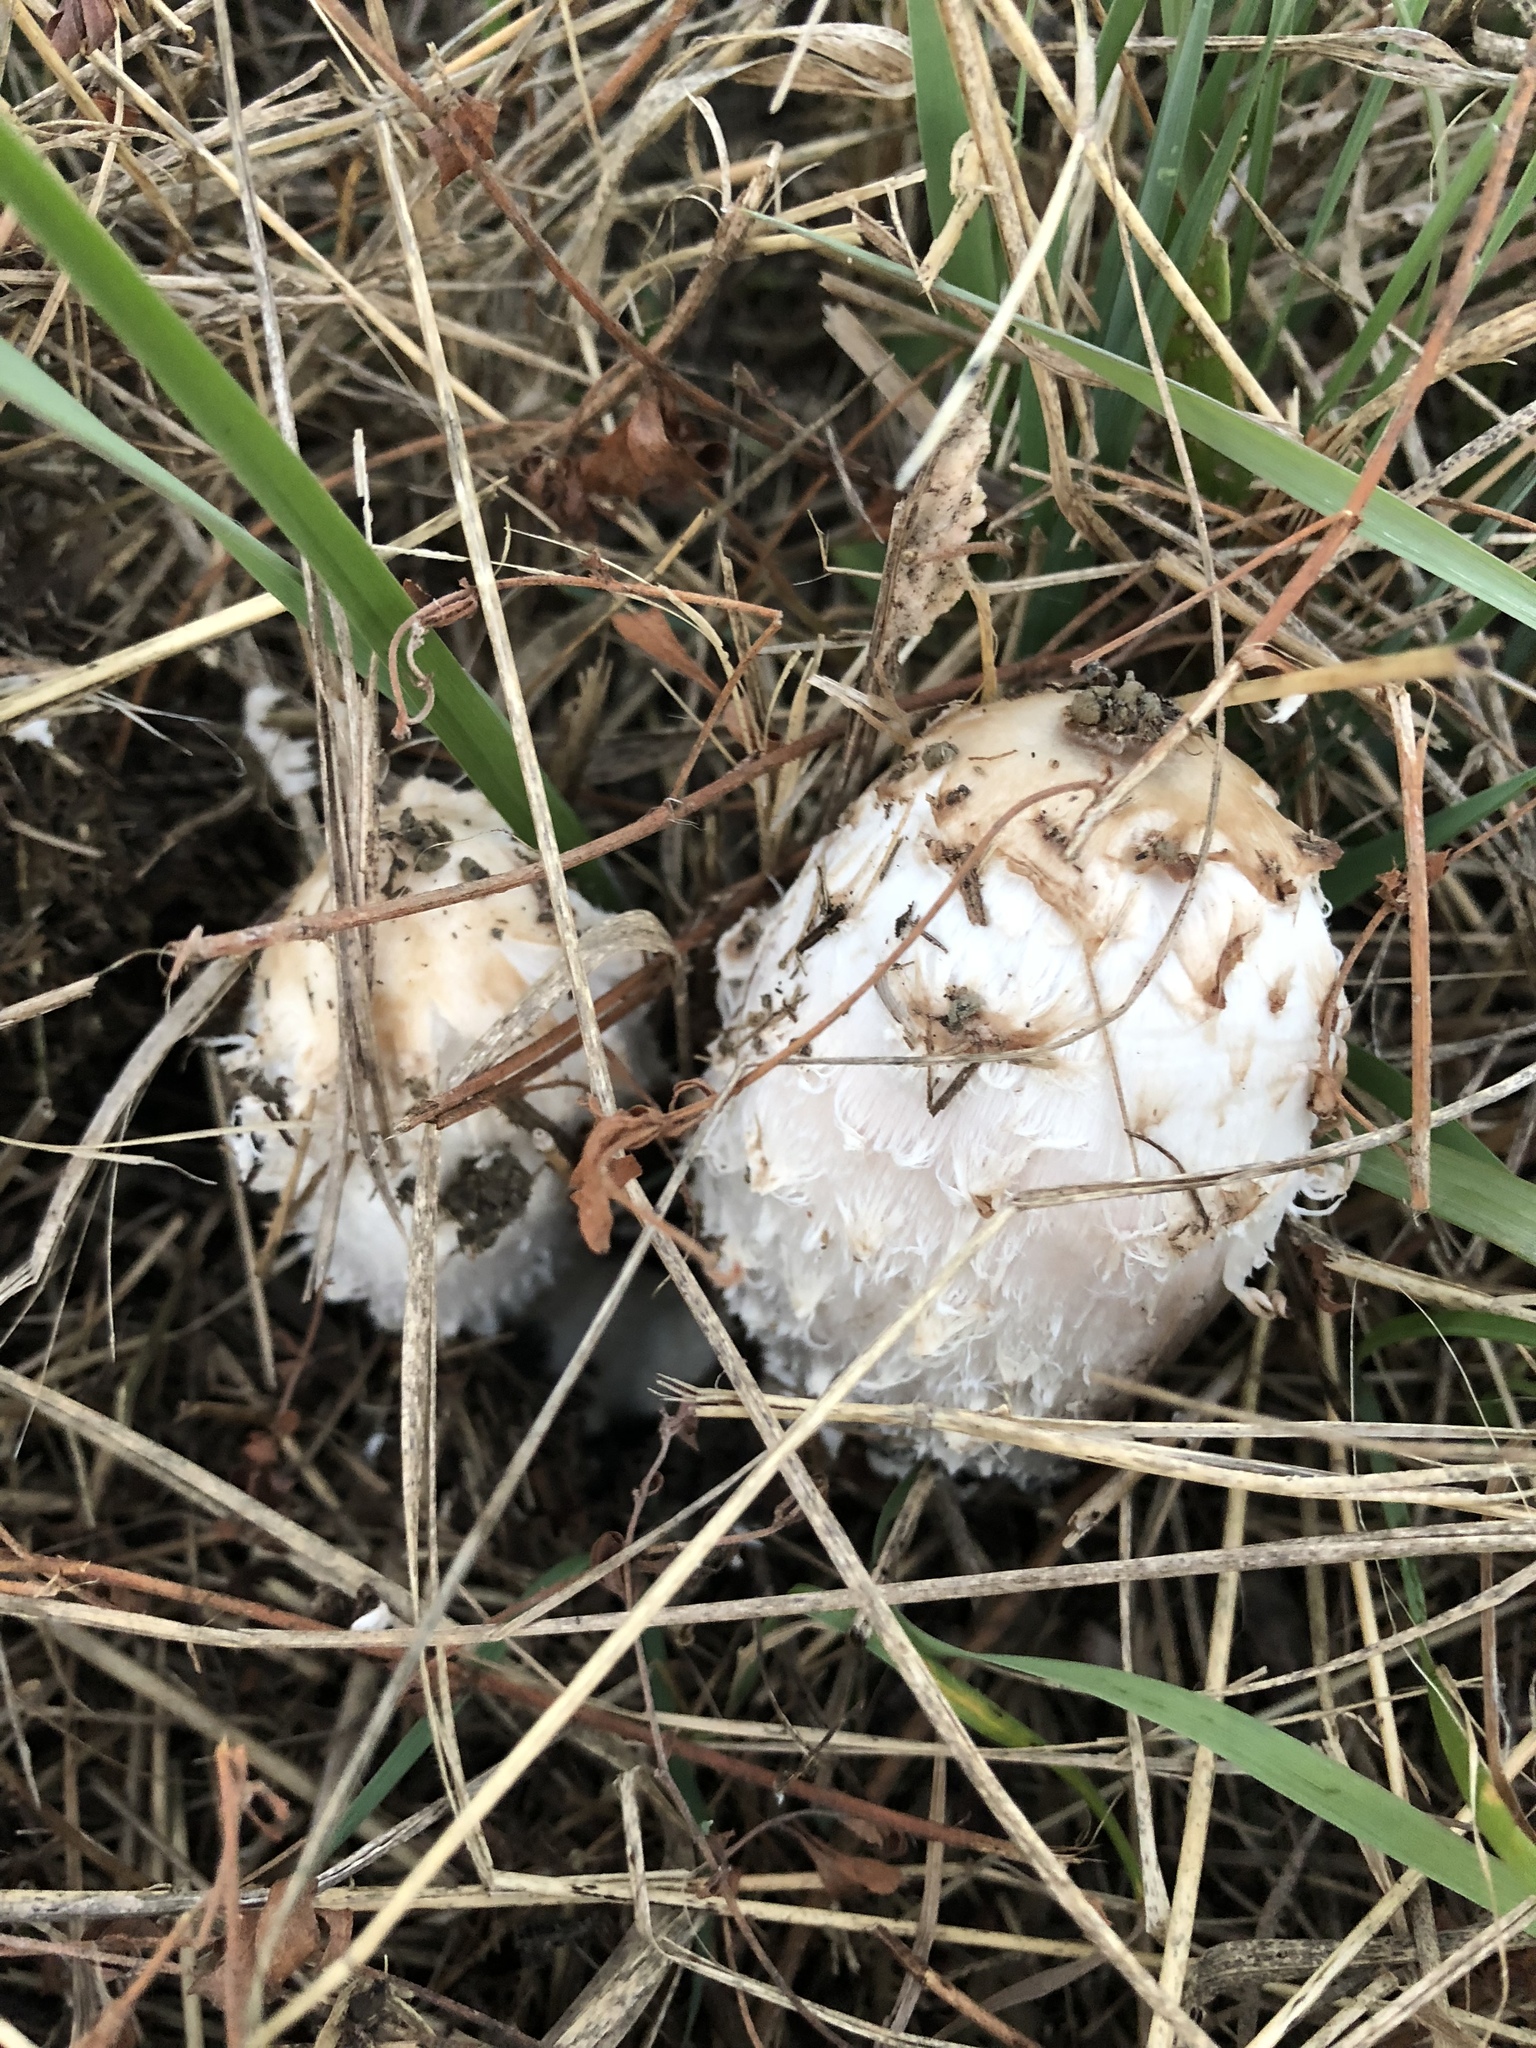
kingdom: Fungi
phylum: Basidiomycota
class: Agaricomycetes
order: Agaricales
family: Agaricaceae
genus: Coprinus
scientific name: Coprinus comatus
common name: Lawyer's wig
